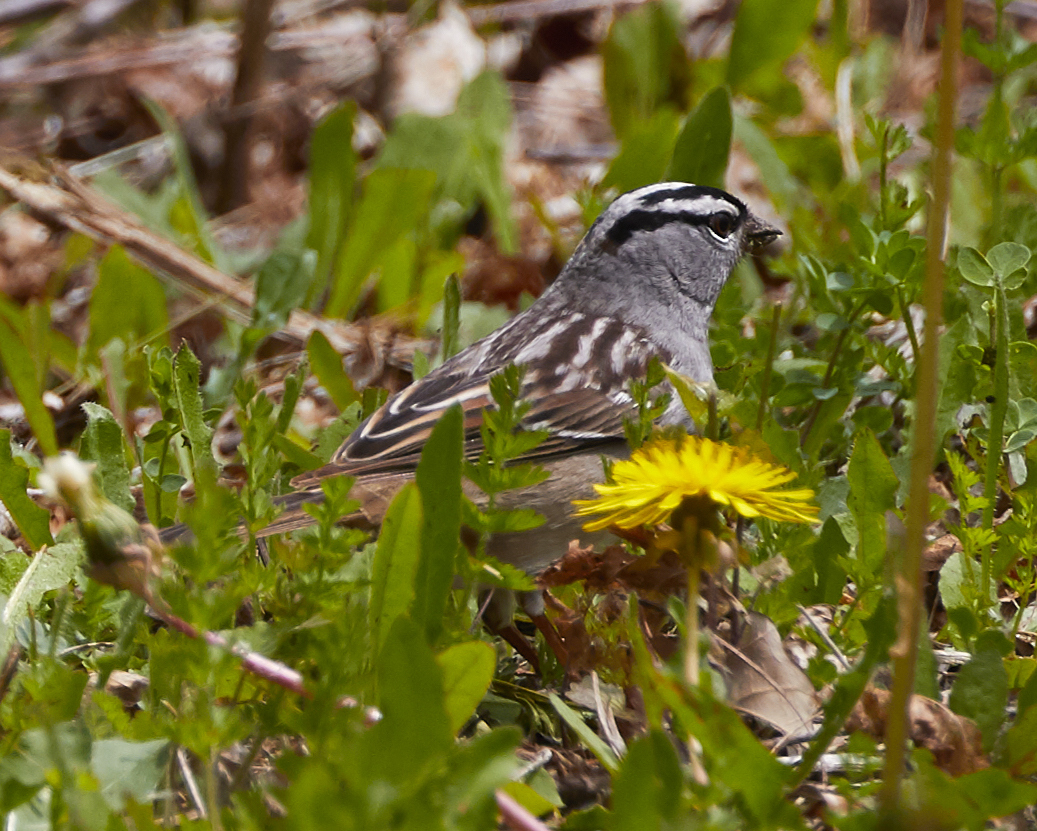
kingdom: Animalia
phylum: Chordata
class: Aves
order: Passeriformes
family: Passerellidae
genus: Zonotrichia
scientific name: Zonotrichia leucophrys
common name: White-crowned sparrow
